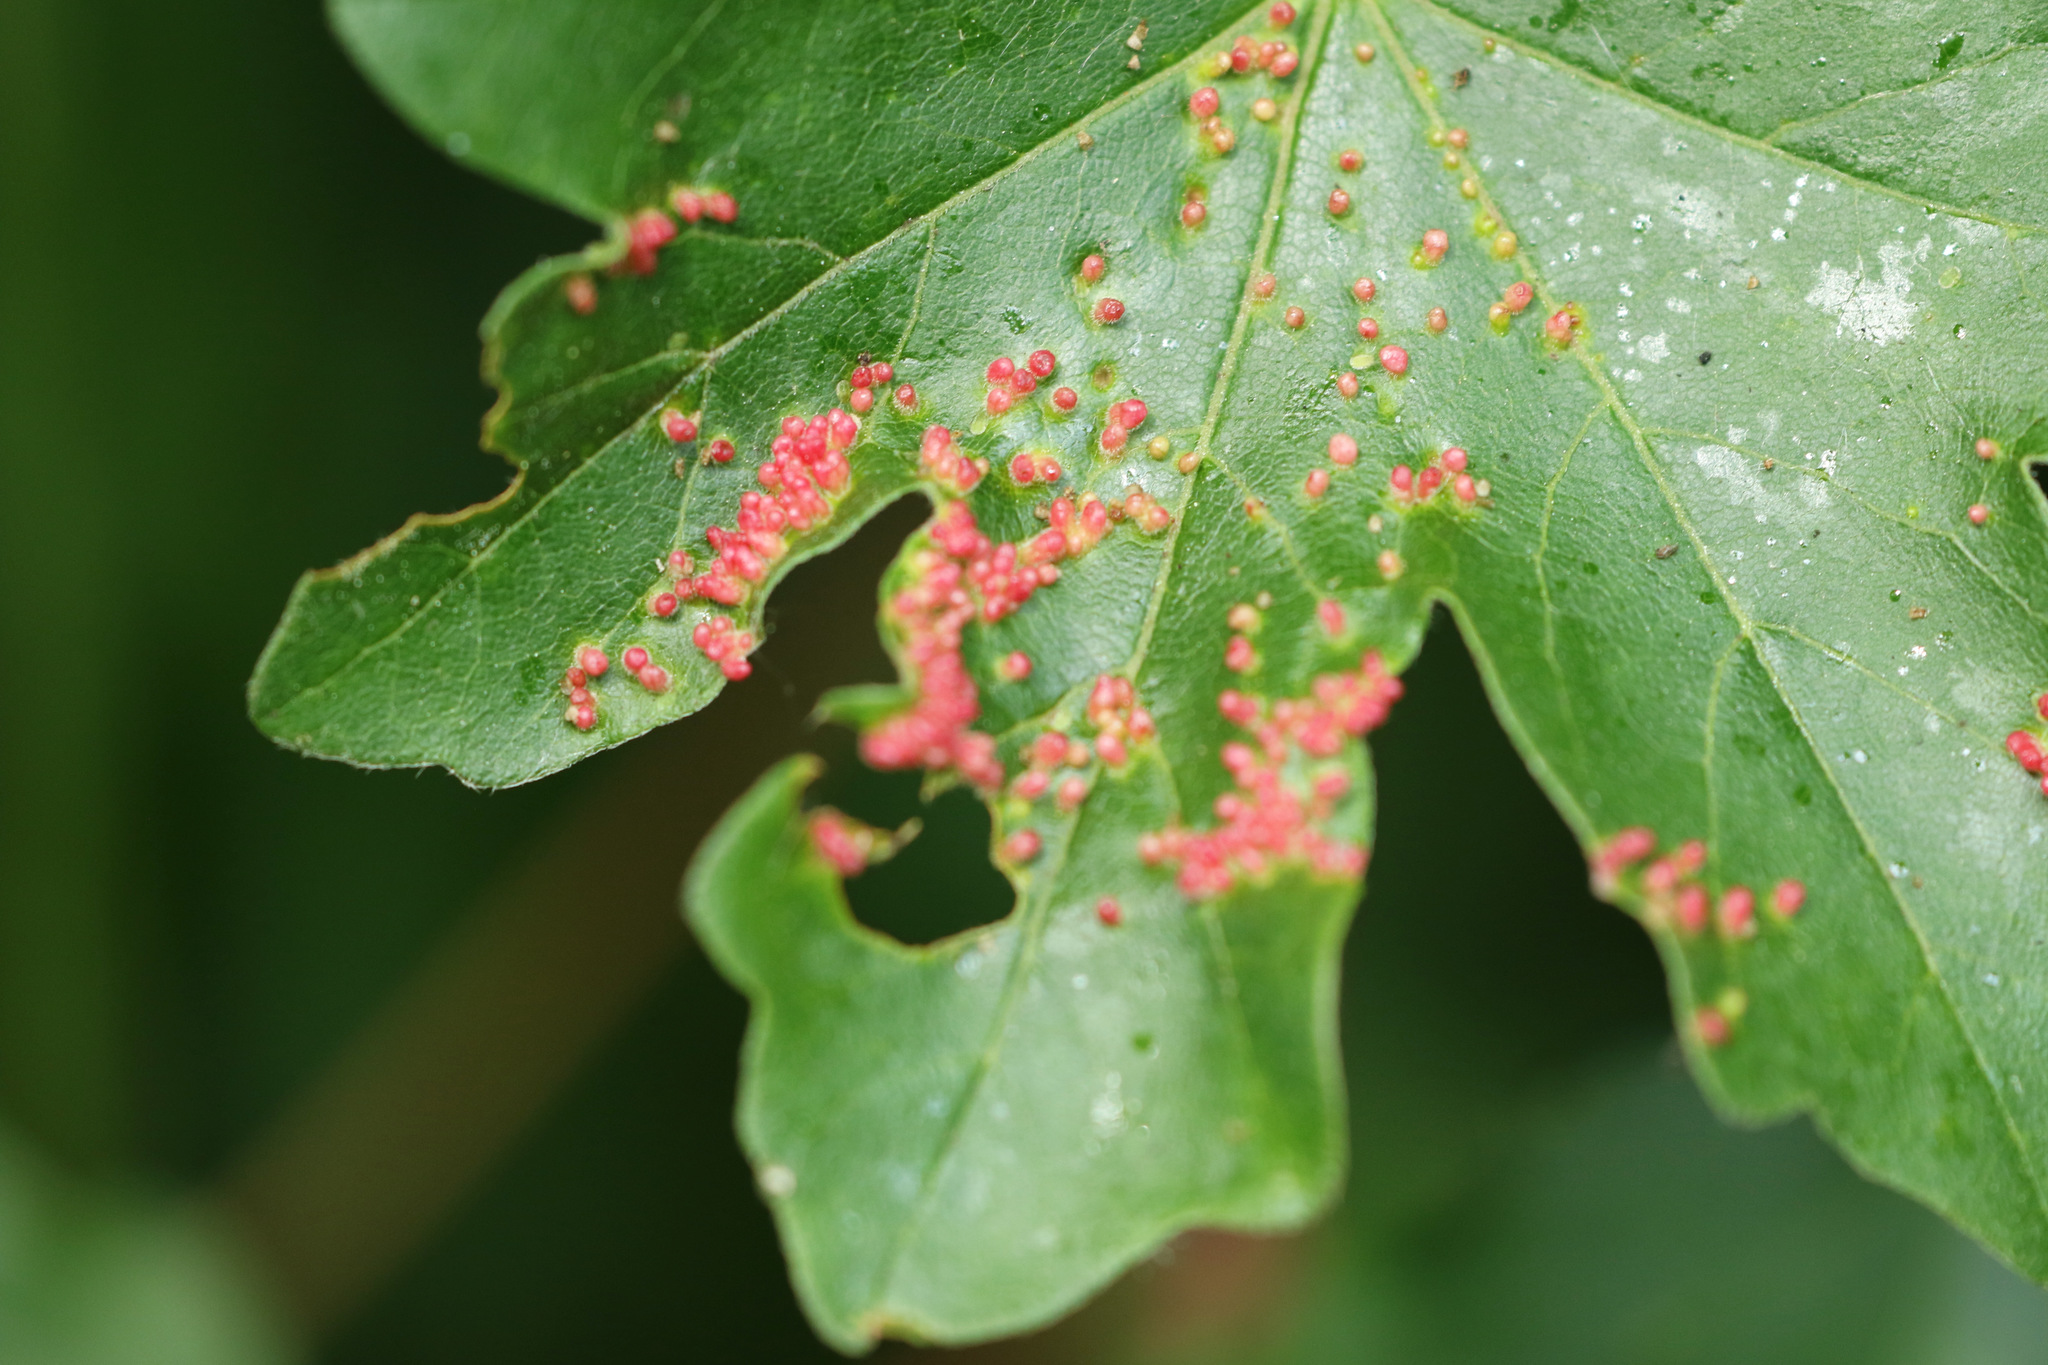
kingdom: Animalia
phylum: Arthropoda
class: Arachnida
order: Trombidiformes
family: Eriophyidae
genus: Aceria
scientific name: Aceria myriadeum
